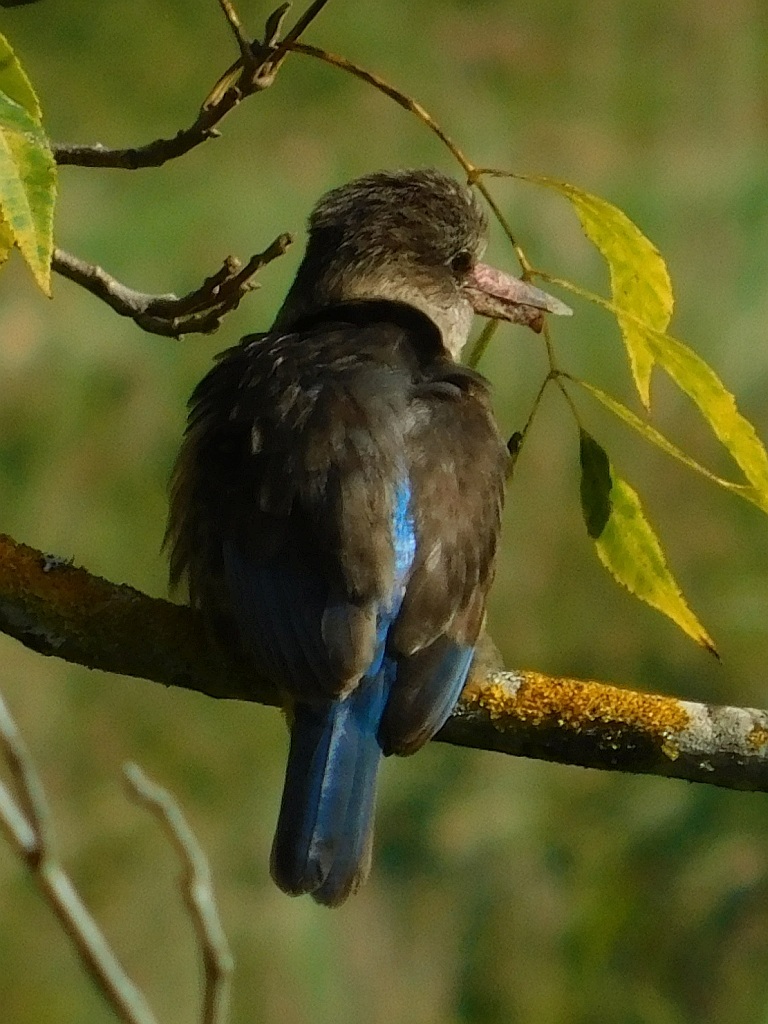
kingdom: Animalia
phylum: Chordata
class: Aves
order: Coraciiformes
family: Alcedinidae
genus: Halcyon
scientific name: Halcyon albiventris
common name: Brown-hooded kingfisher
